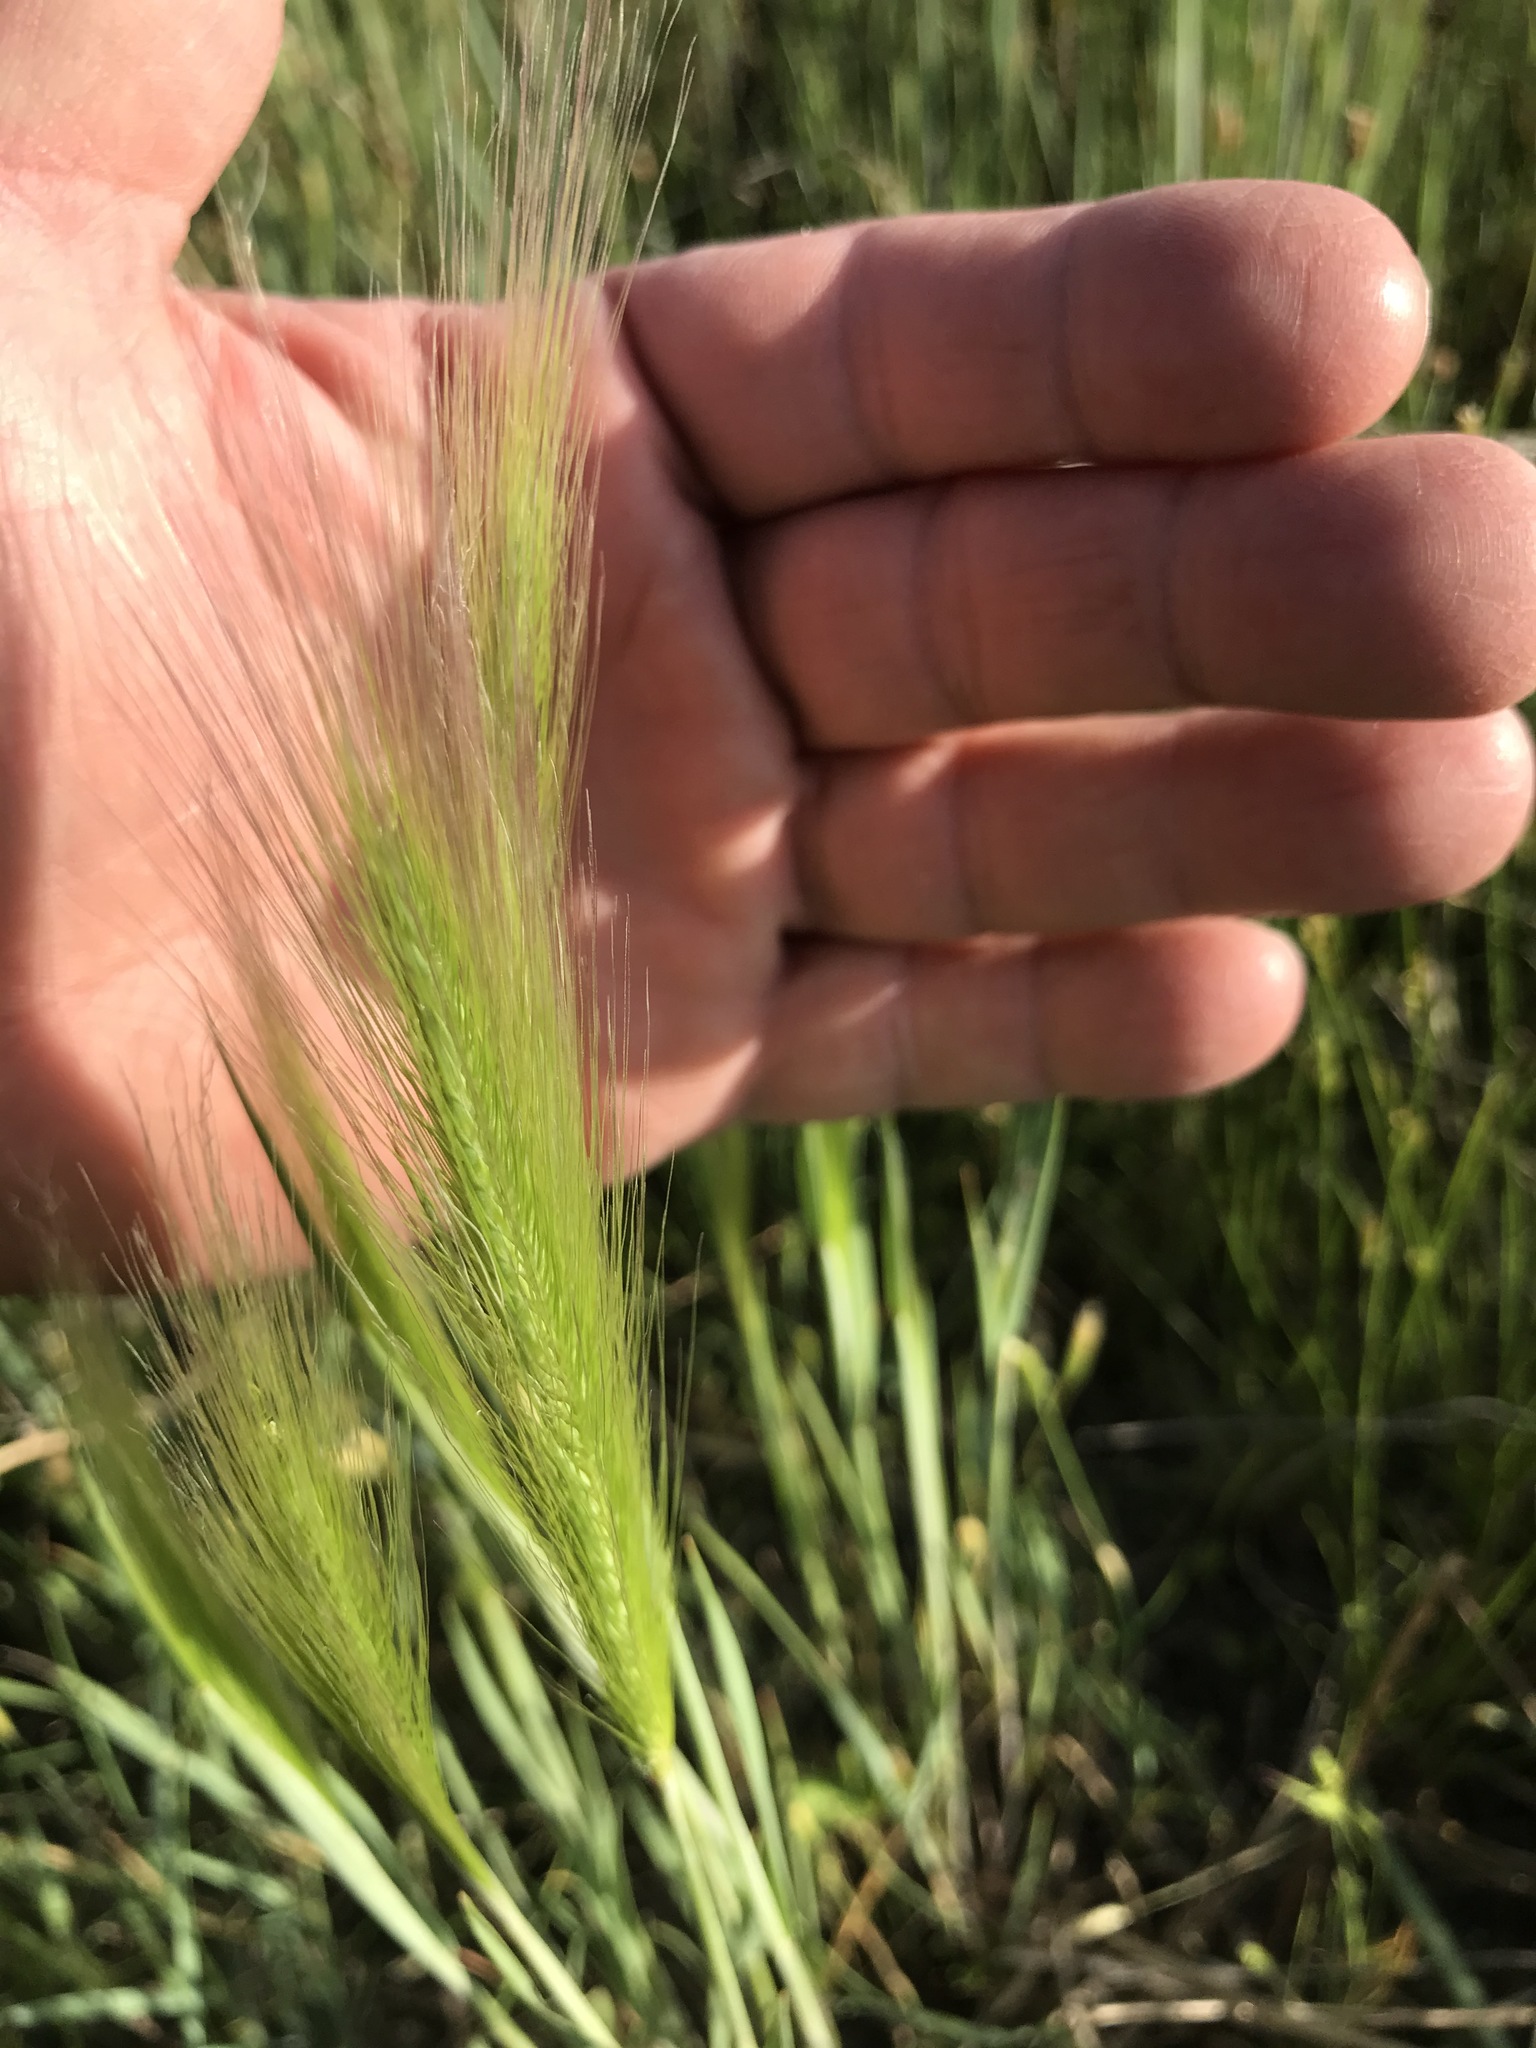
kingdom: Plantae
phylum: Tracheophyta
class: Liliopsida
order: Poales
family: Poaceae
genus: Hordeum
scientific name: Hordeum jubatum
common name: Foxtail barley
